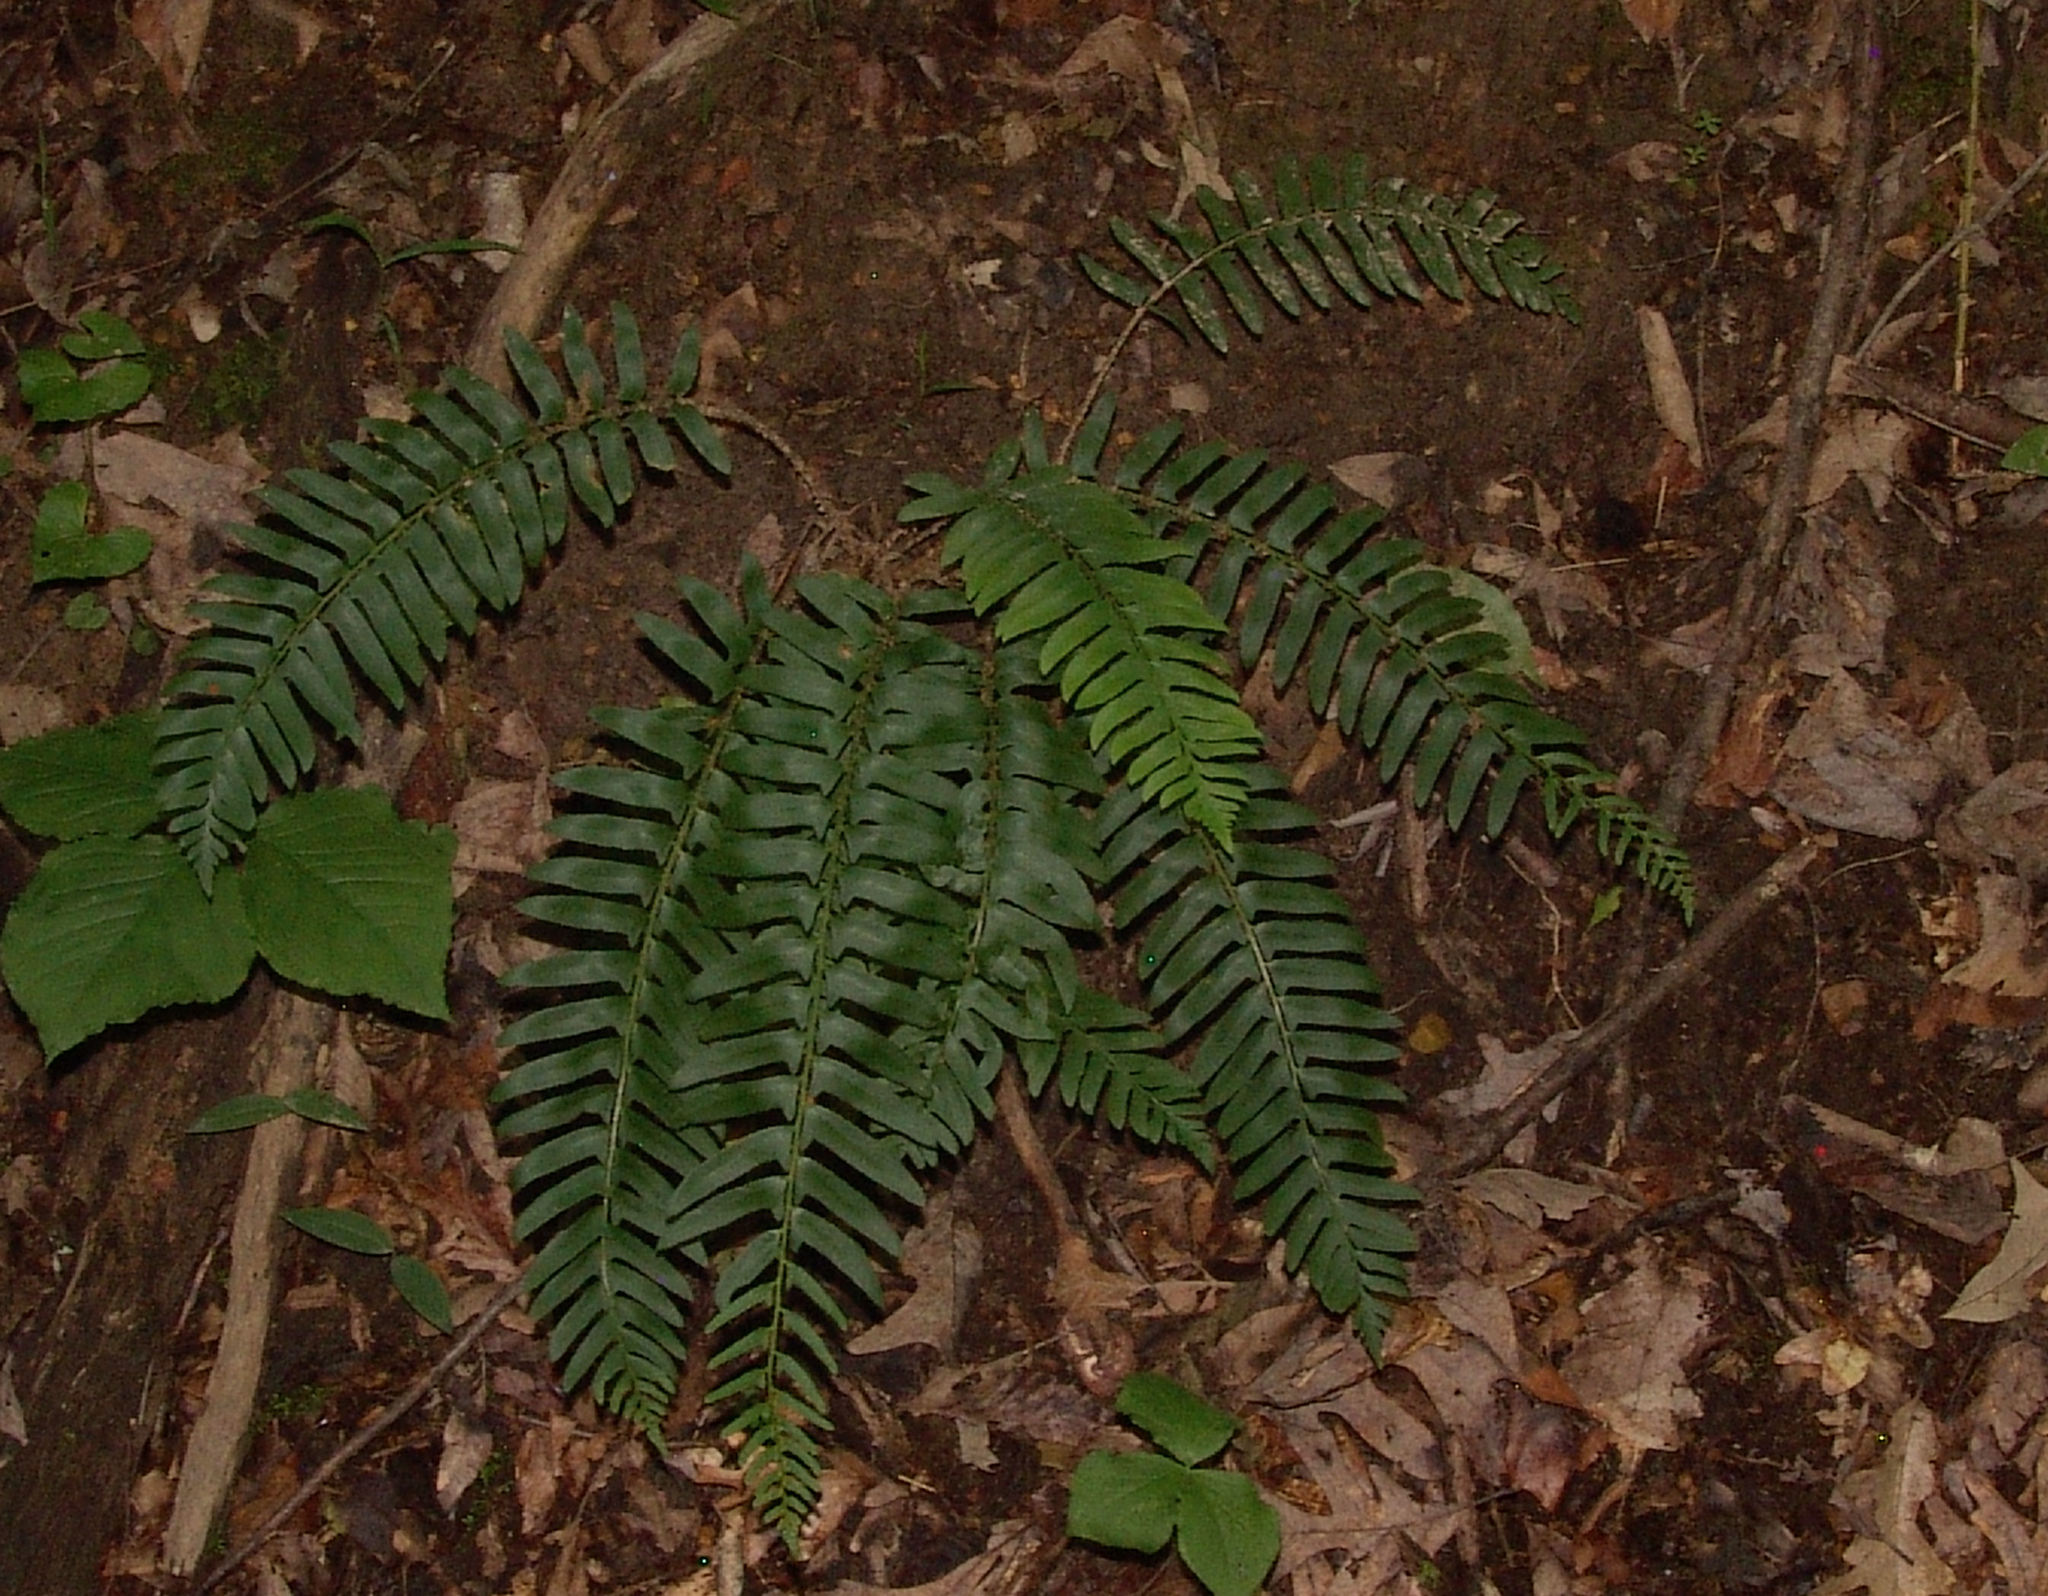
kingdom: Plantae
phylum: Tracheophyta
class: Polypodiopsida
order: Polypodiales
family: Dryopteridaceae
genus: Polystichum
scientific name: Polystichum acrostichoides
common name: Christmas fern
